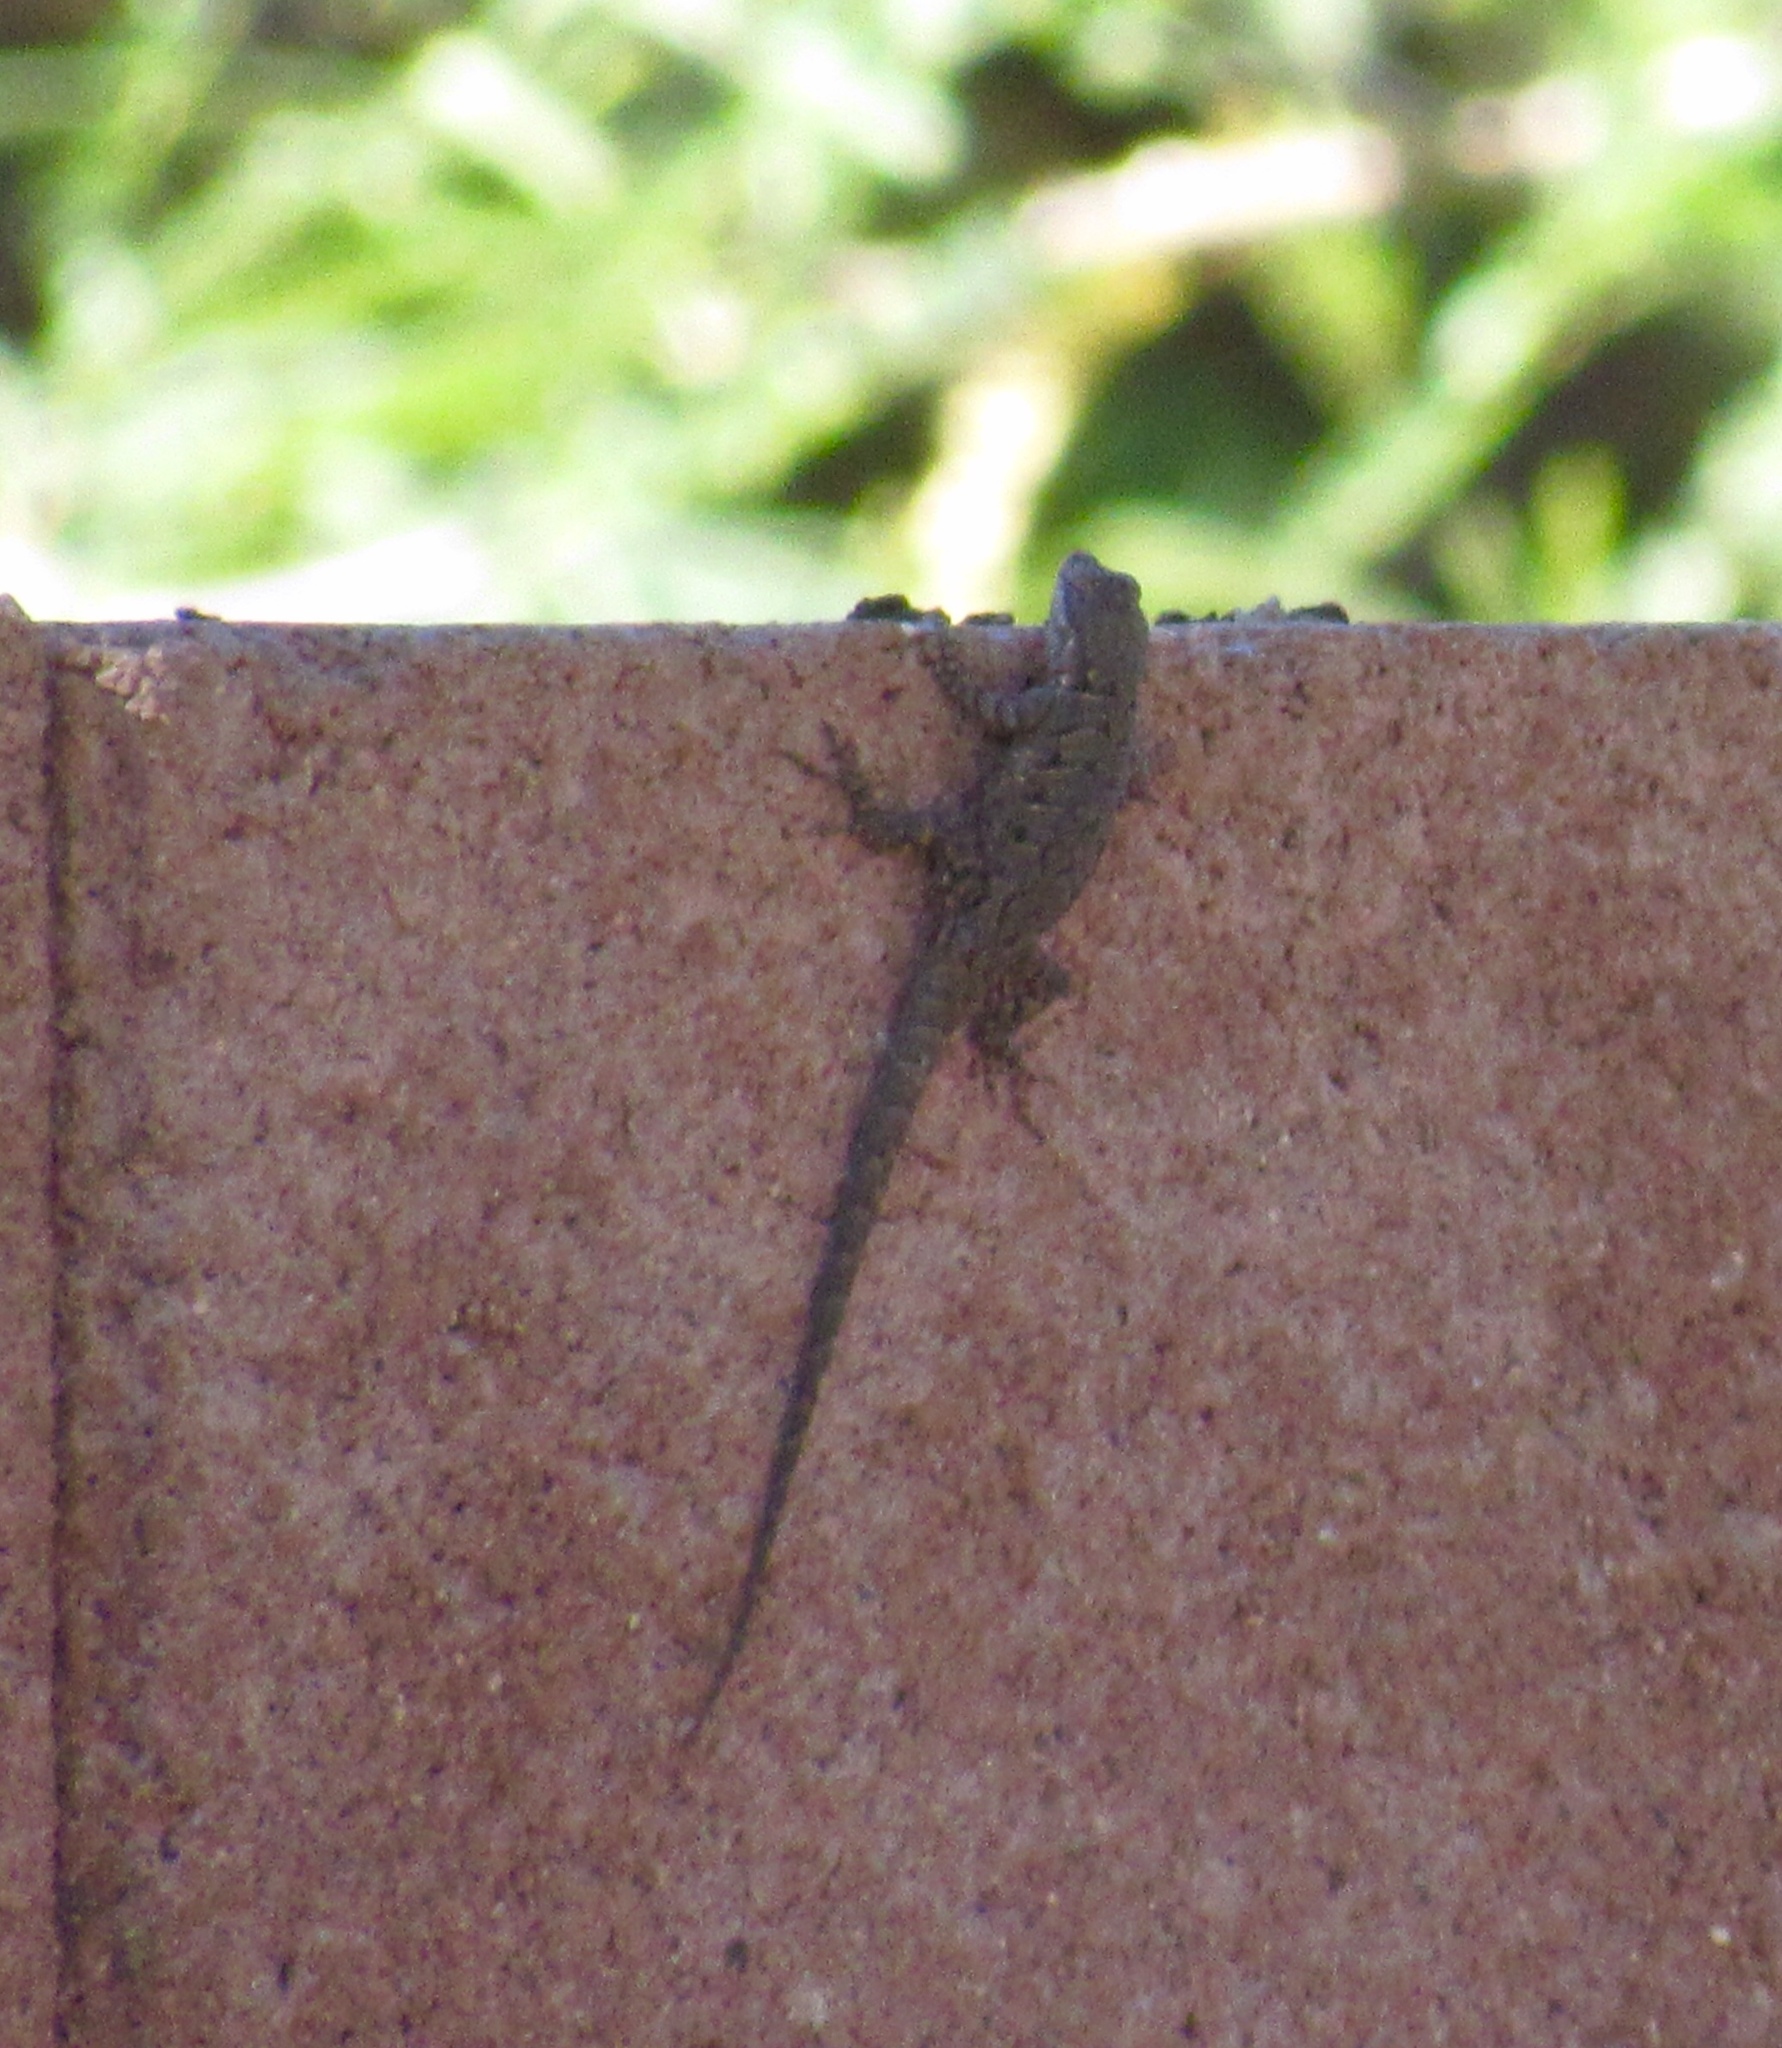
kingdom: Animalia
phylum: Chordata
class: Squamata
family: Phrynosomatidae
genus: Urosaurus
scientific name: Urosaurus ornatus
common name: Ornate tree lizard
